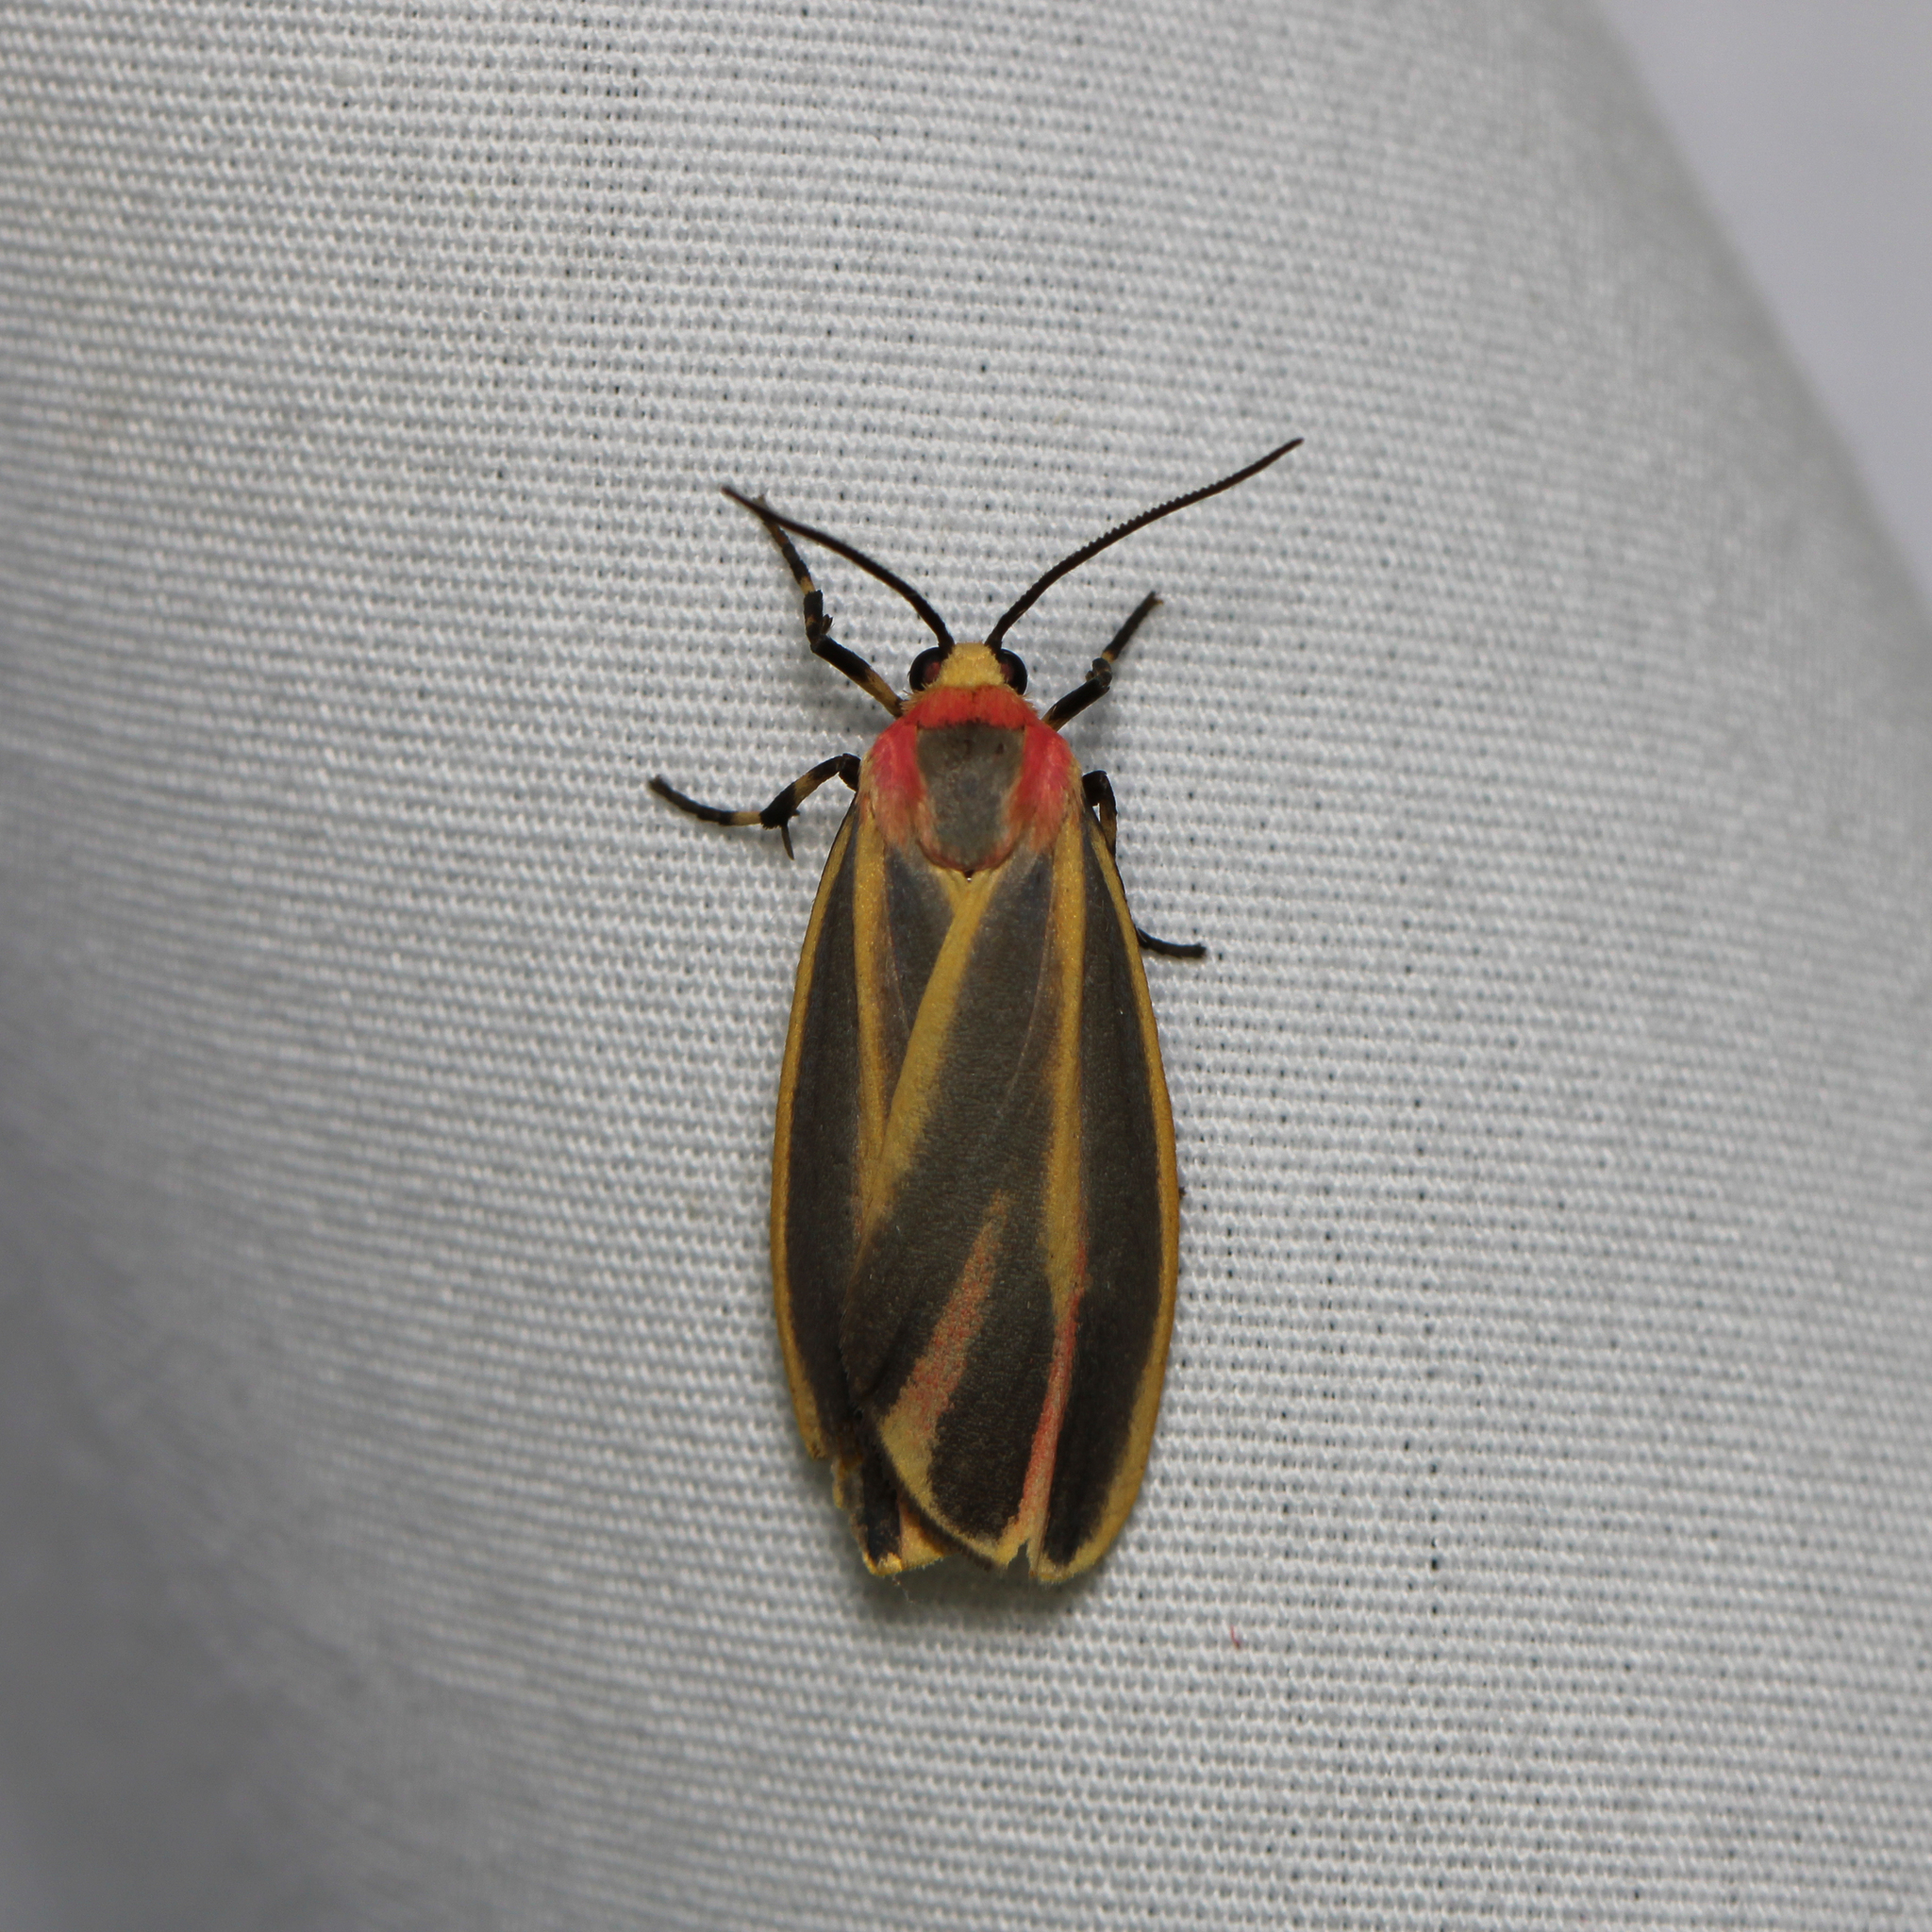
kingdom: Animalia
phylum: Arthropoda
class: Insecta
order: Lepidoptera
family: Erebidae
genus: Hypoprepia
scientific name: Hypoprepia fucosa
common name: Painted lichen moth
